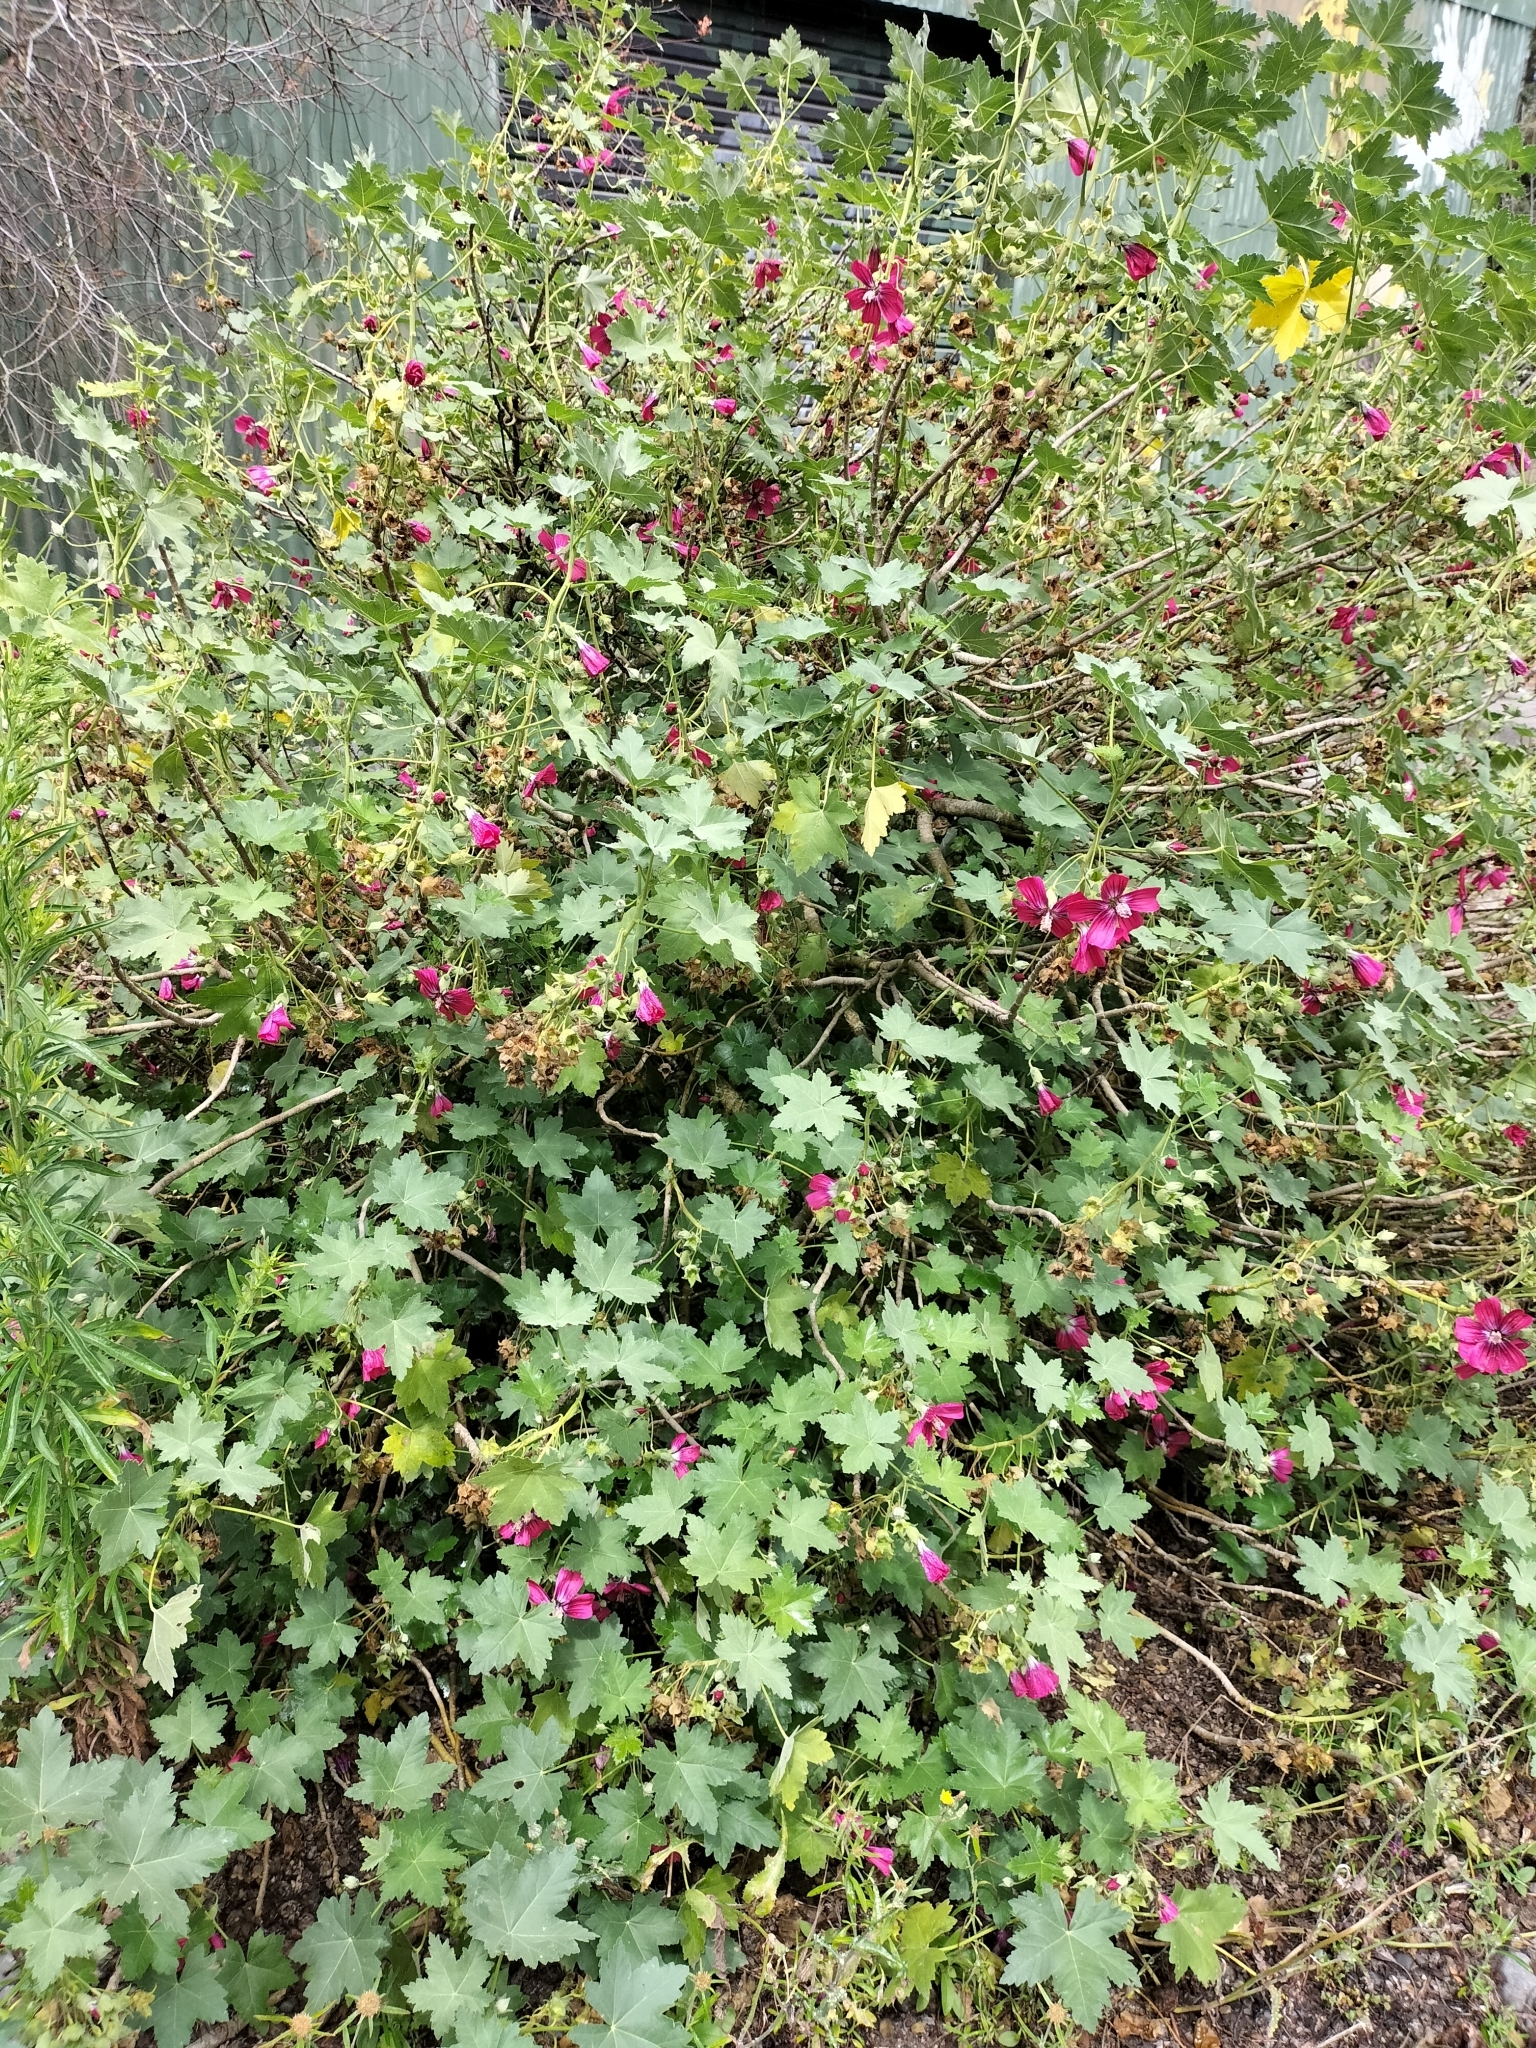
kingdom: Plantae
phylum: Tracheophyta
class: Magnoliopsida
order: Malvales
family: Malvaceae
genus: Malva
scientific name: Malva assurgentiflora
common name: Island mallow
